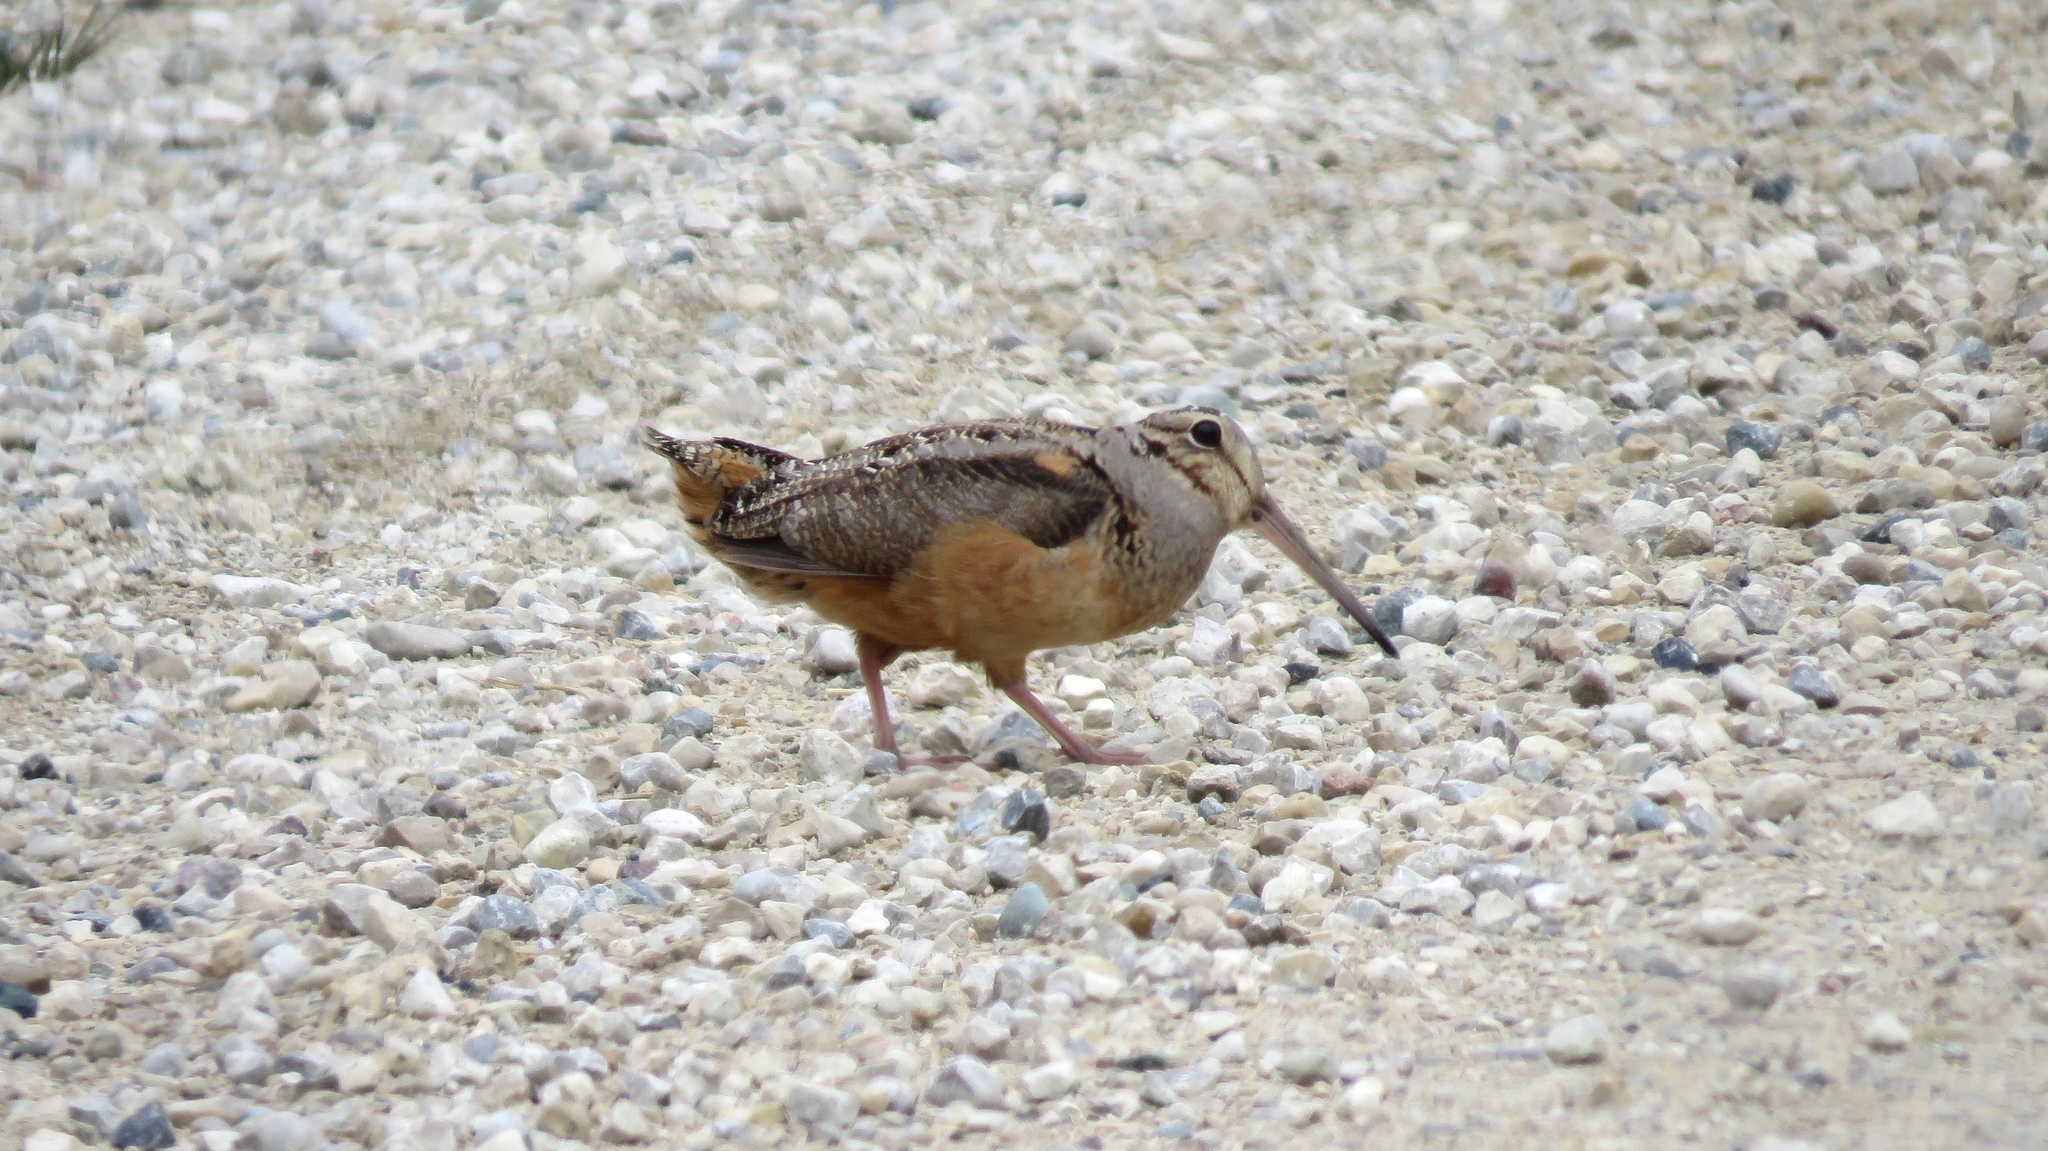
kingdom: Animalia
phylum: Chordata
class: Aves
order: Charadriiformes
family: Scolopacidae
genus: Scolopax
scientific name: Scolopax minor
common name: American woodcock
